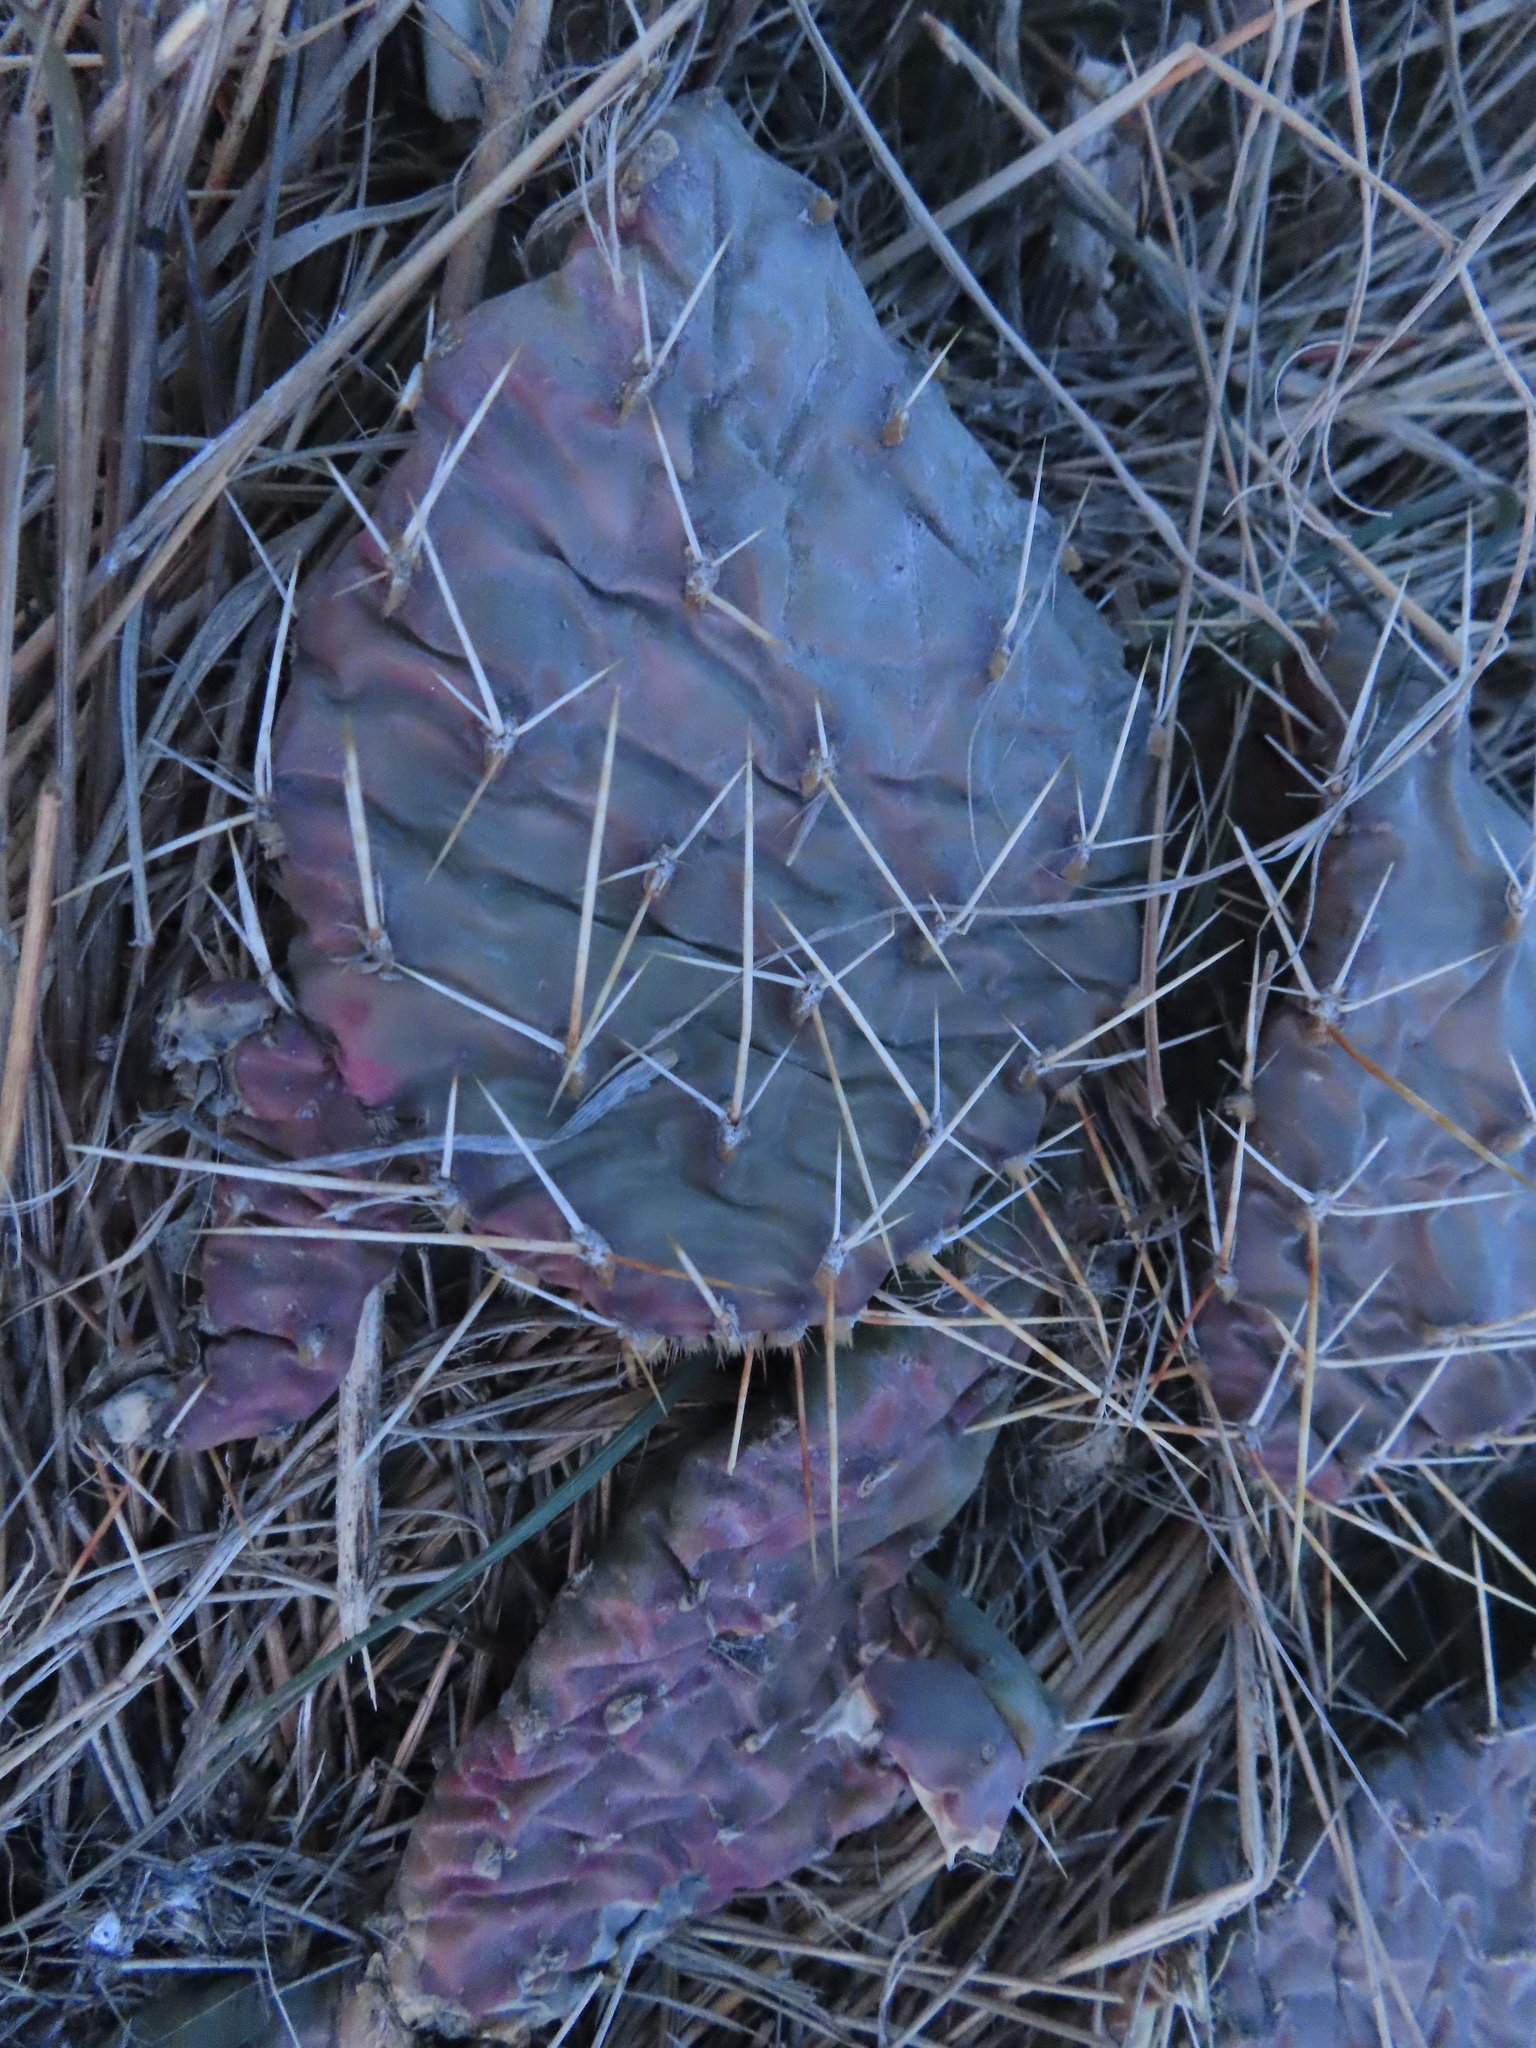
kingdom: Plantae
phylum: Tracheophyta
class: Magnoliopsida
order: Caryophyllales
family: Cactaceae
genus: Opuntia
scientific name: Opuntia macrorhiza
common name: Grassland pricklypear
